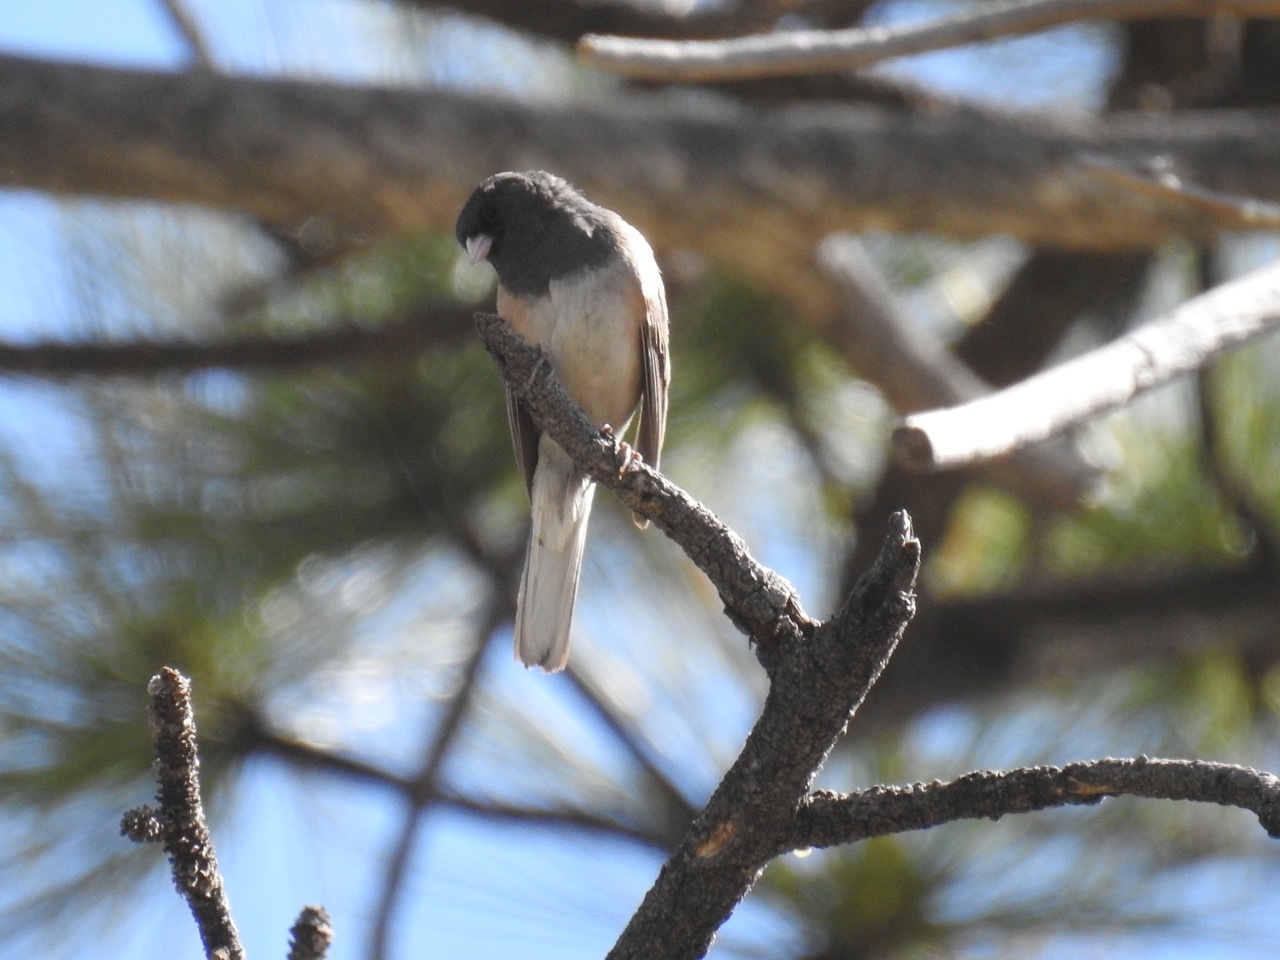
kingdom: Animalia
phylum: Chordata
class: Aves
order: Passeriformes
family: Passerellidae
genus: Junco
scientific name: Junco hyemalis
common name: Dark-eyed junco
